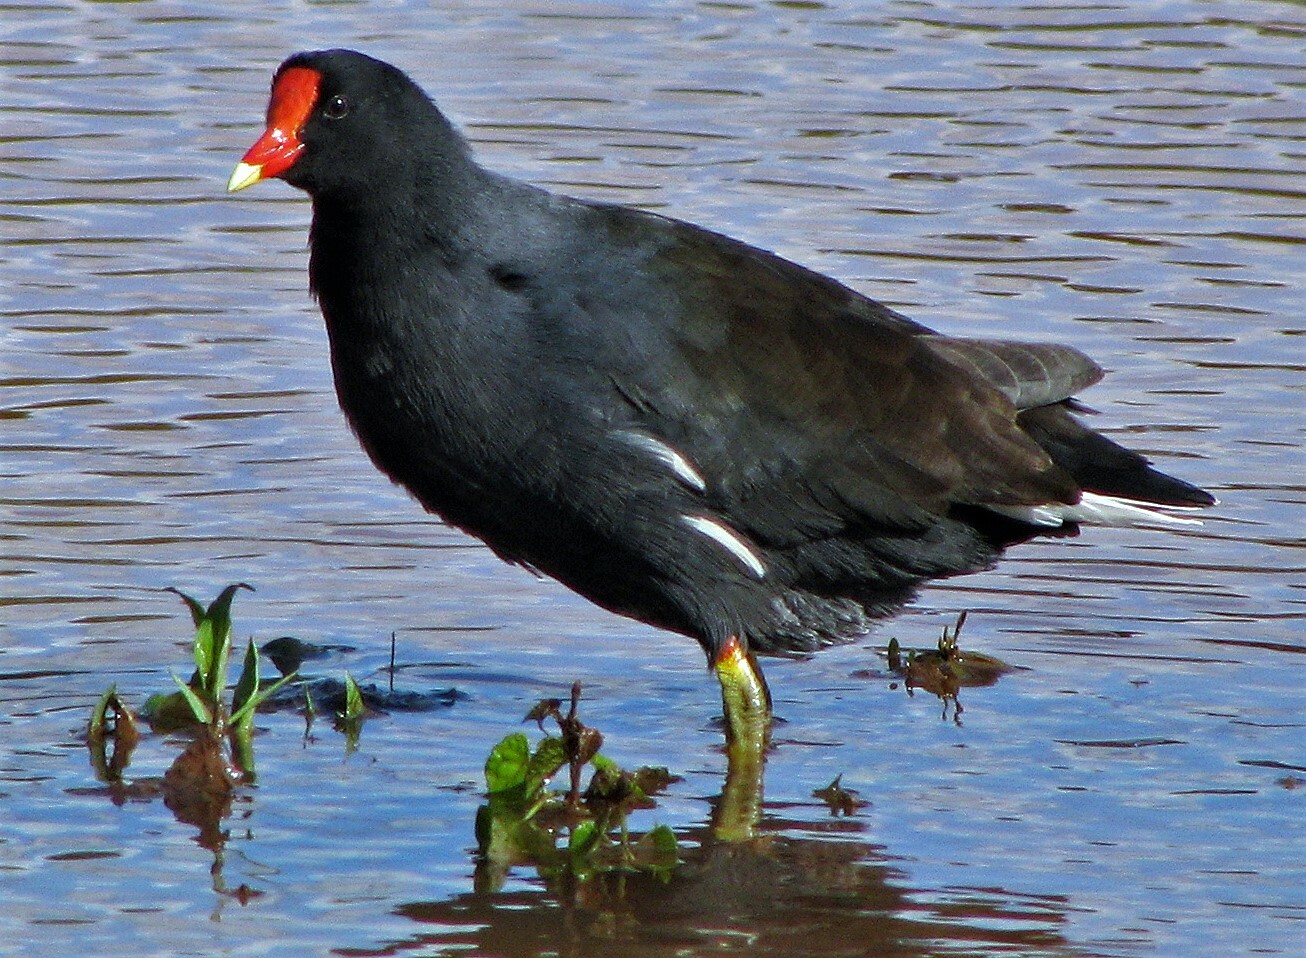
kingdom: Animalia
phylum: Chordata
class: Aves
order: Gruiformes
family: Rallidae
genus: Gallinula
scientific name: Gallinula chloropus
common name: Common moorhen
